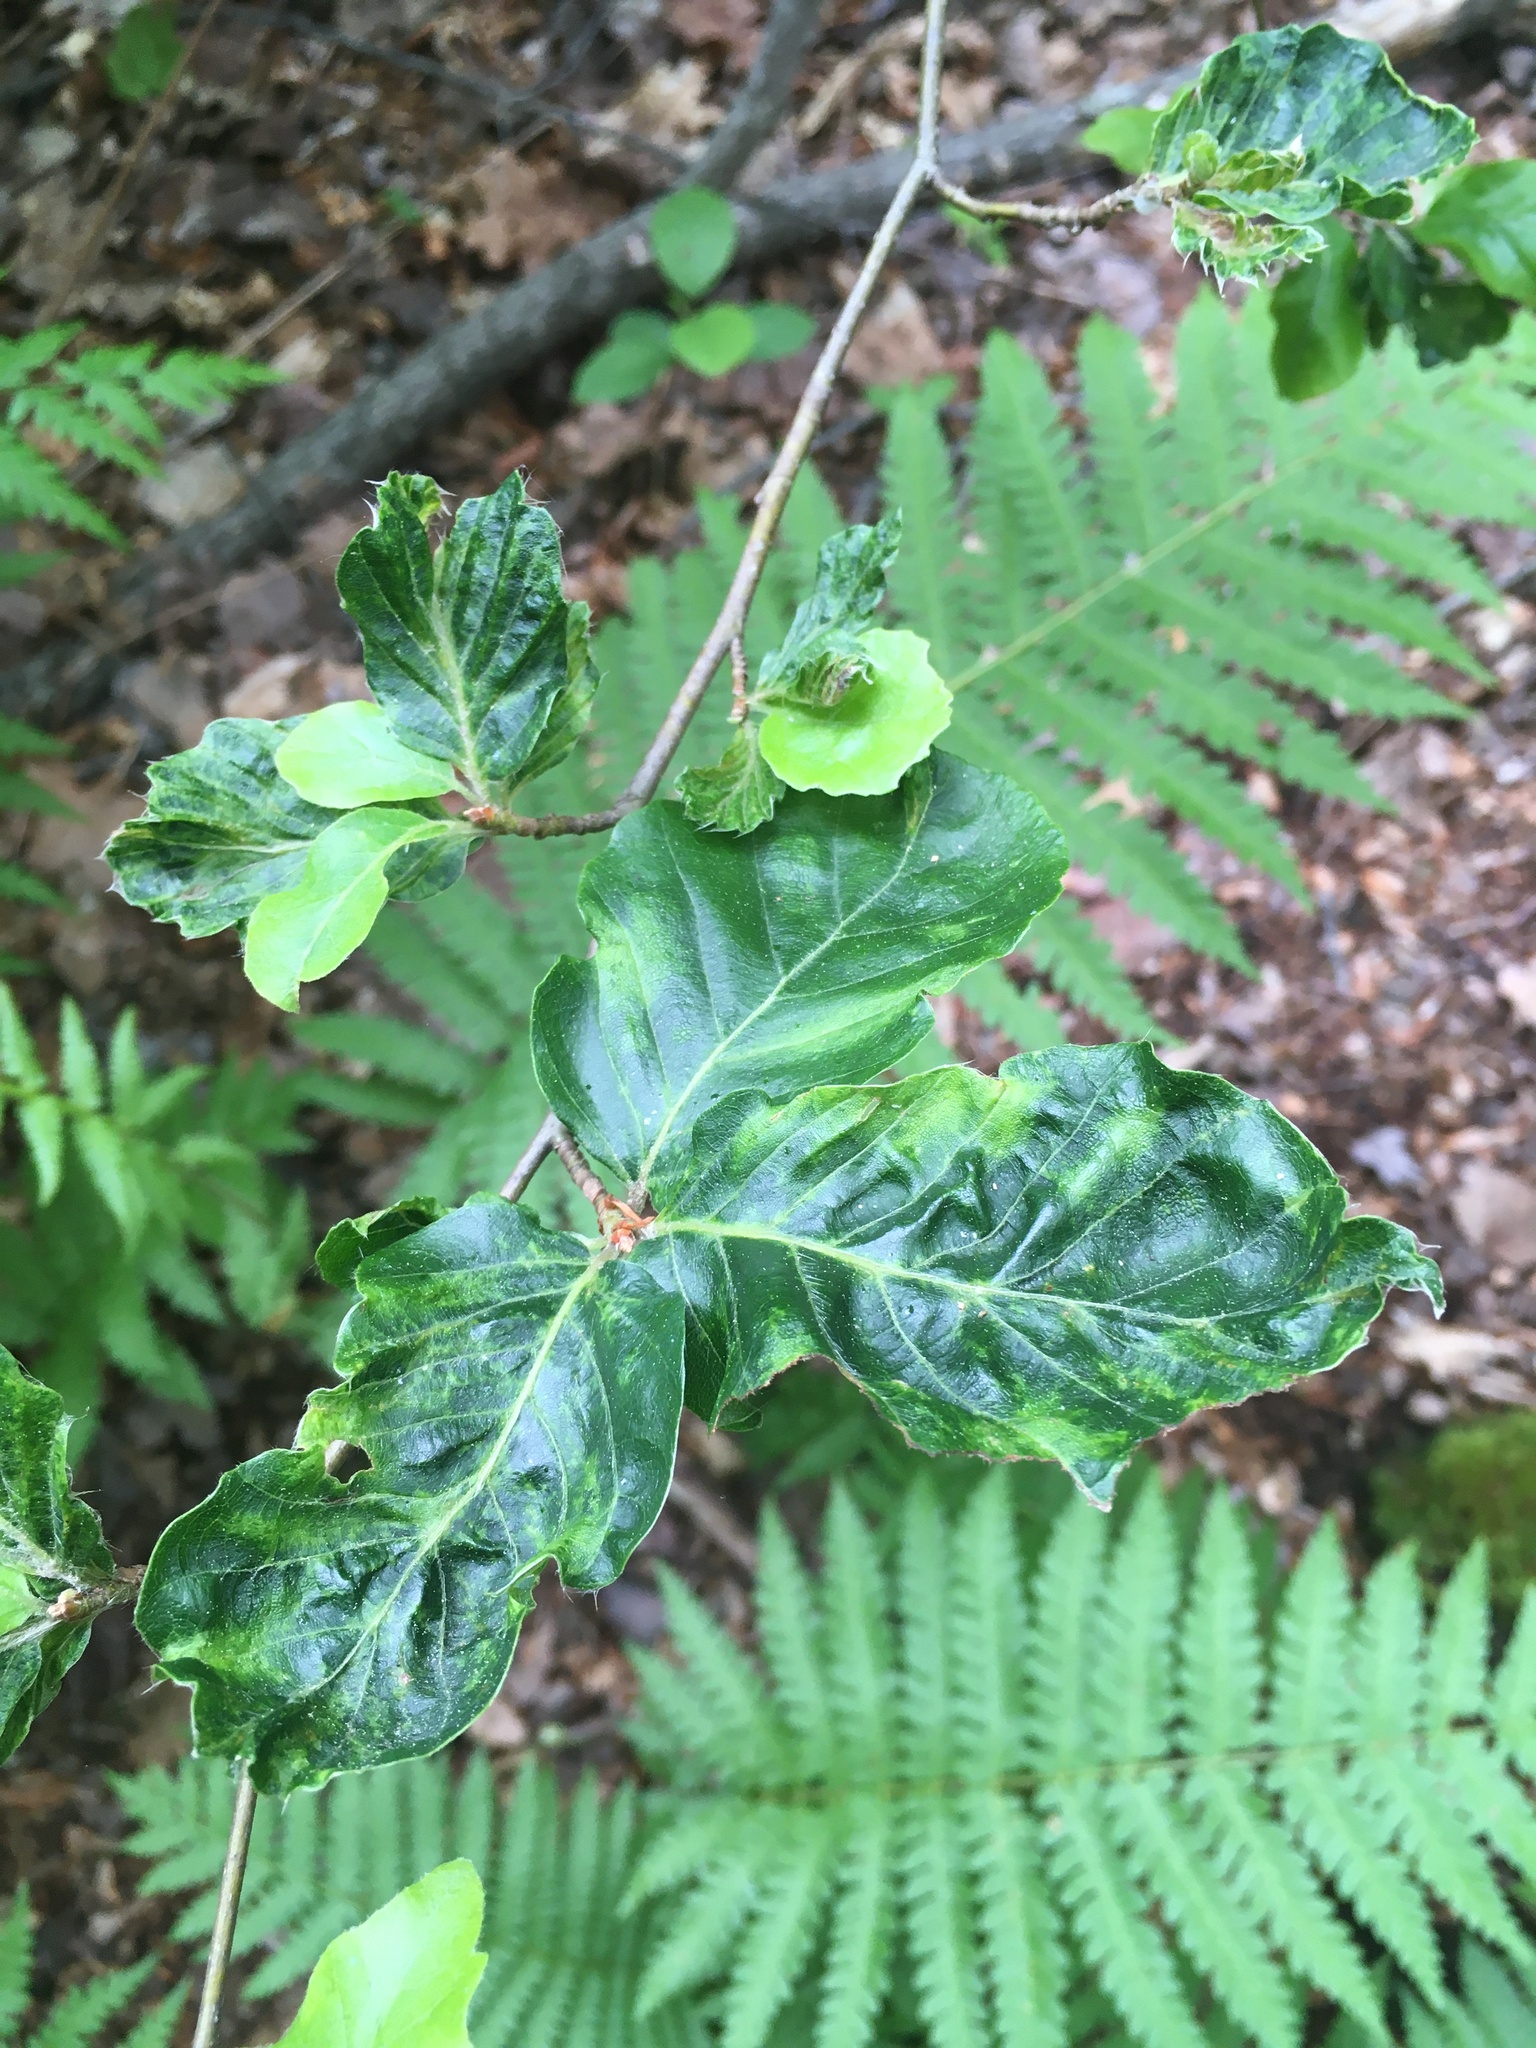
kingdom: Animalia
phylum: Nematoda
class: Chromadorea
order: Rhabditida
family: Anguinidae
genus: Litylenchus
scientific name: Litylenchus crenatae
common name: Beech leaf disease
